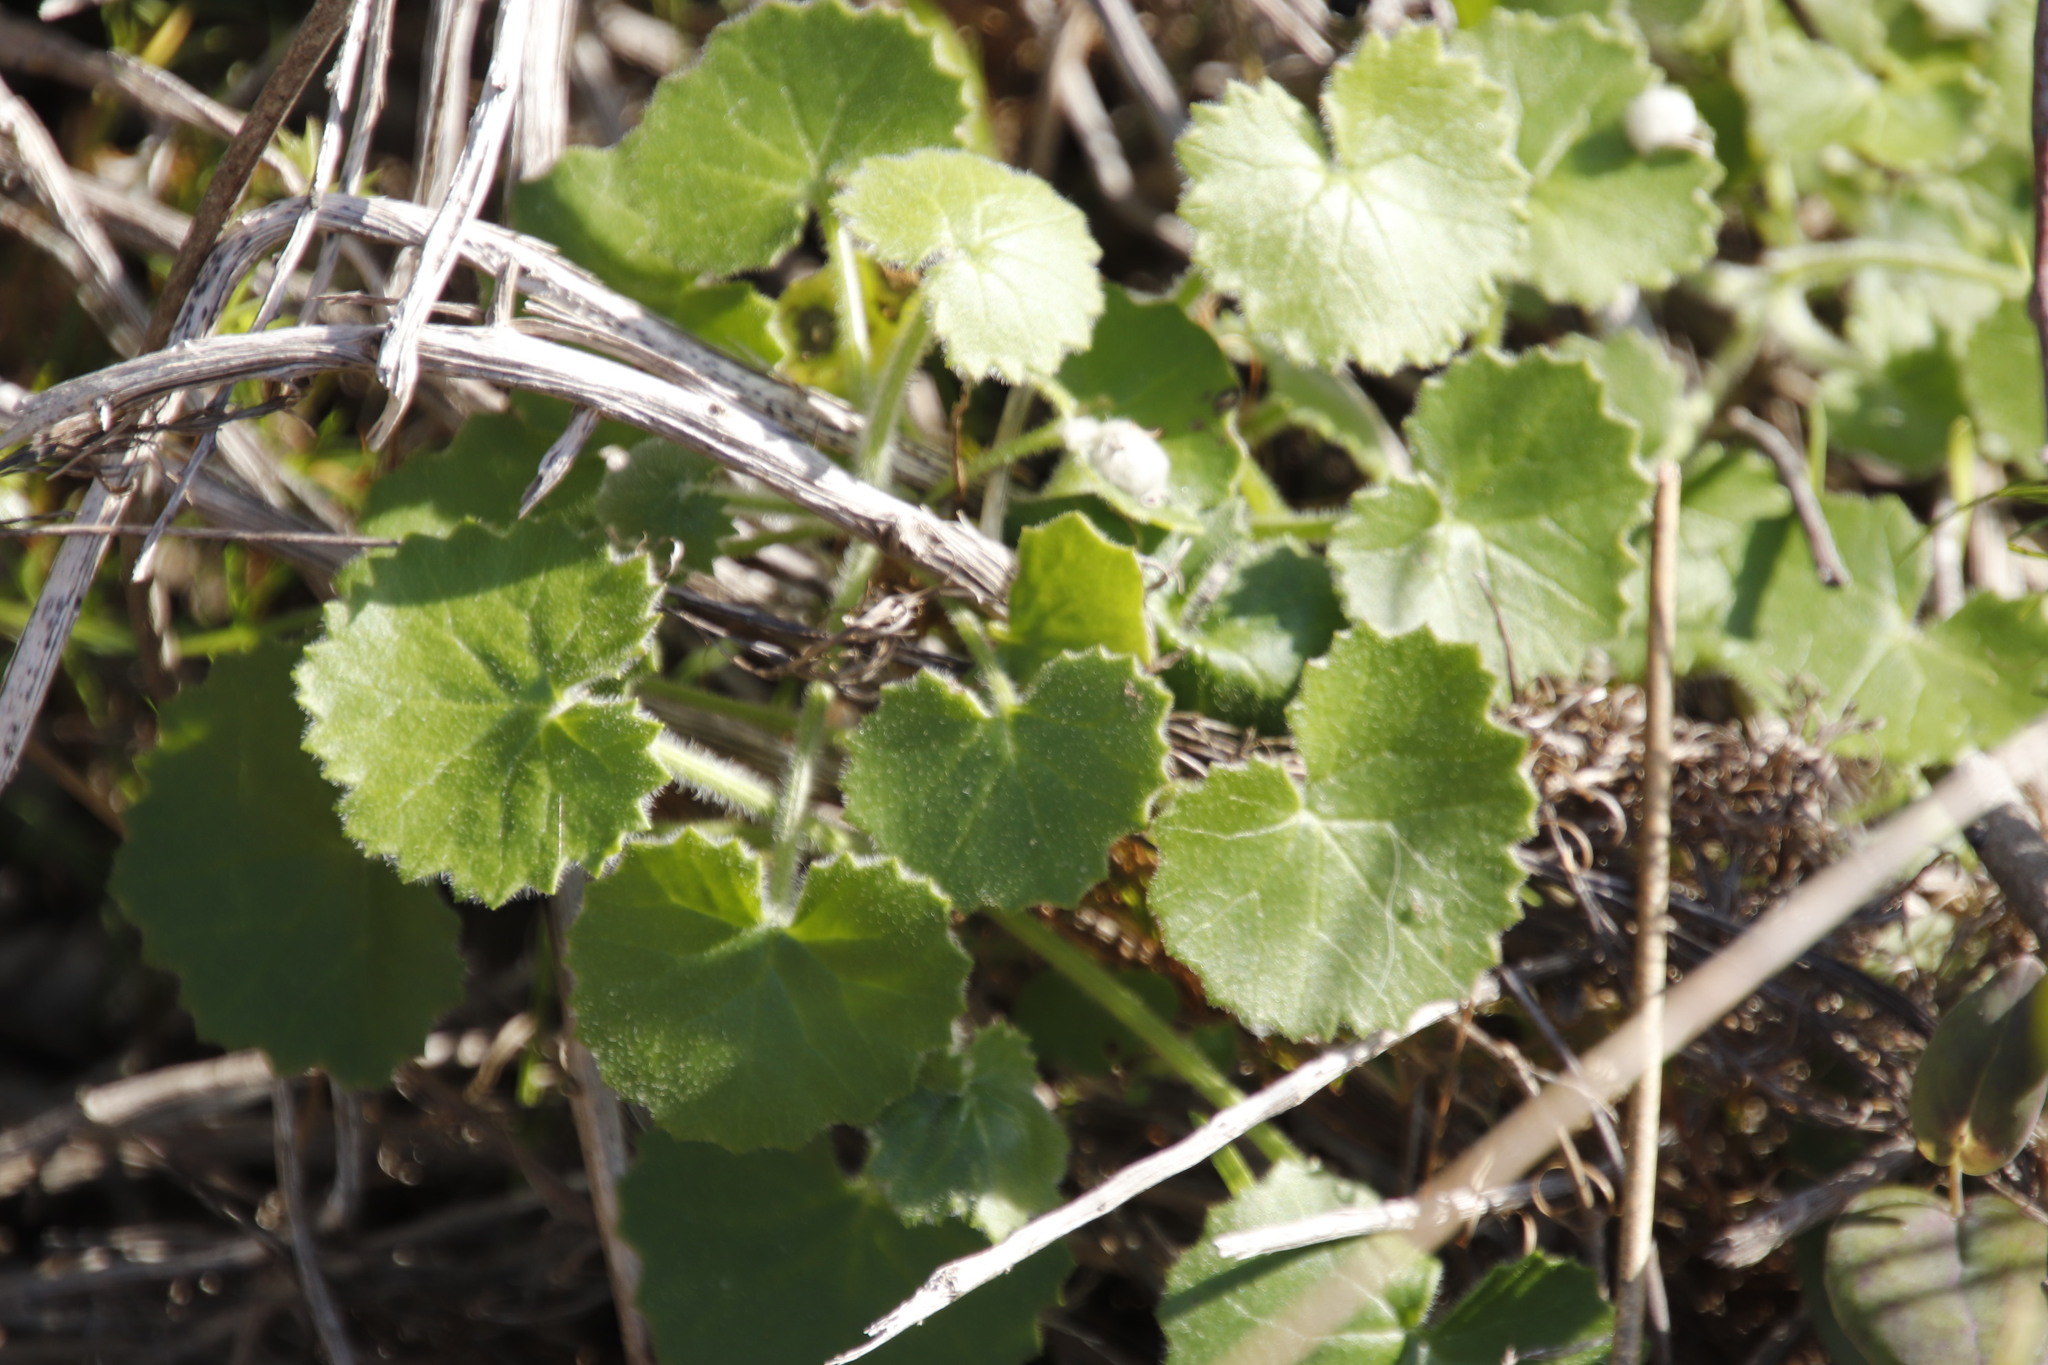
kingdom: Plantae
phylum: Tracheophyta
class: Magnoliopsida
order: Asterales
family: Asteraceae
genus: Cineraria
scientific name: Cineraria geifolia
